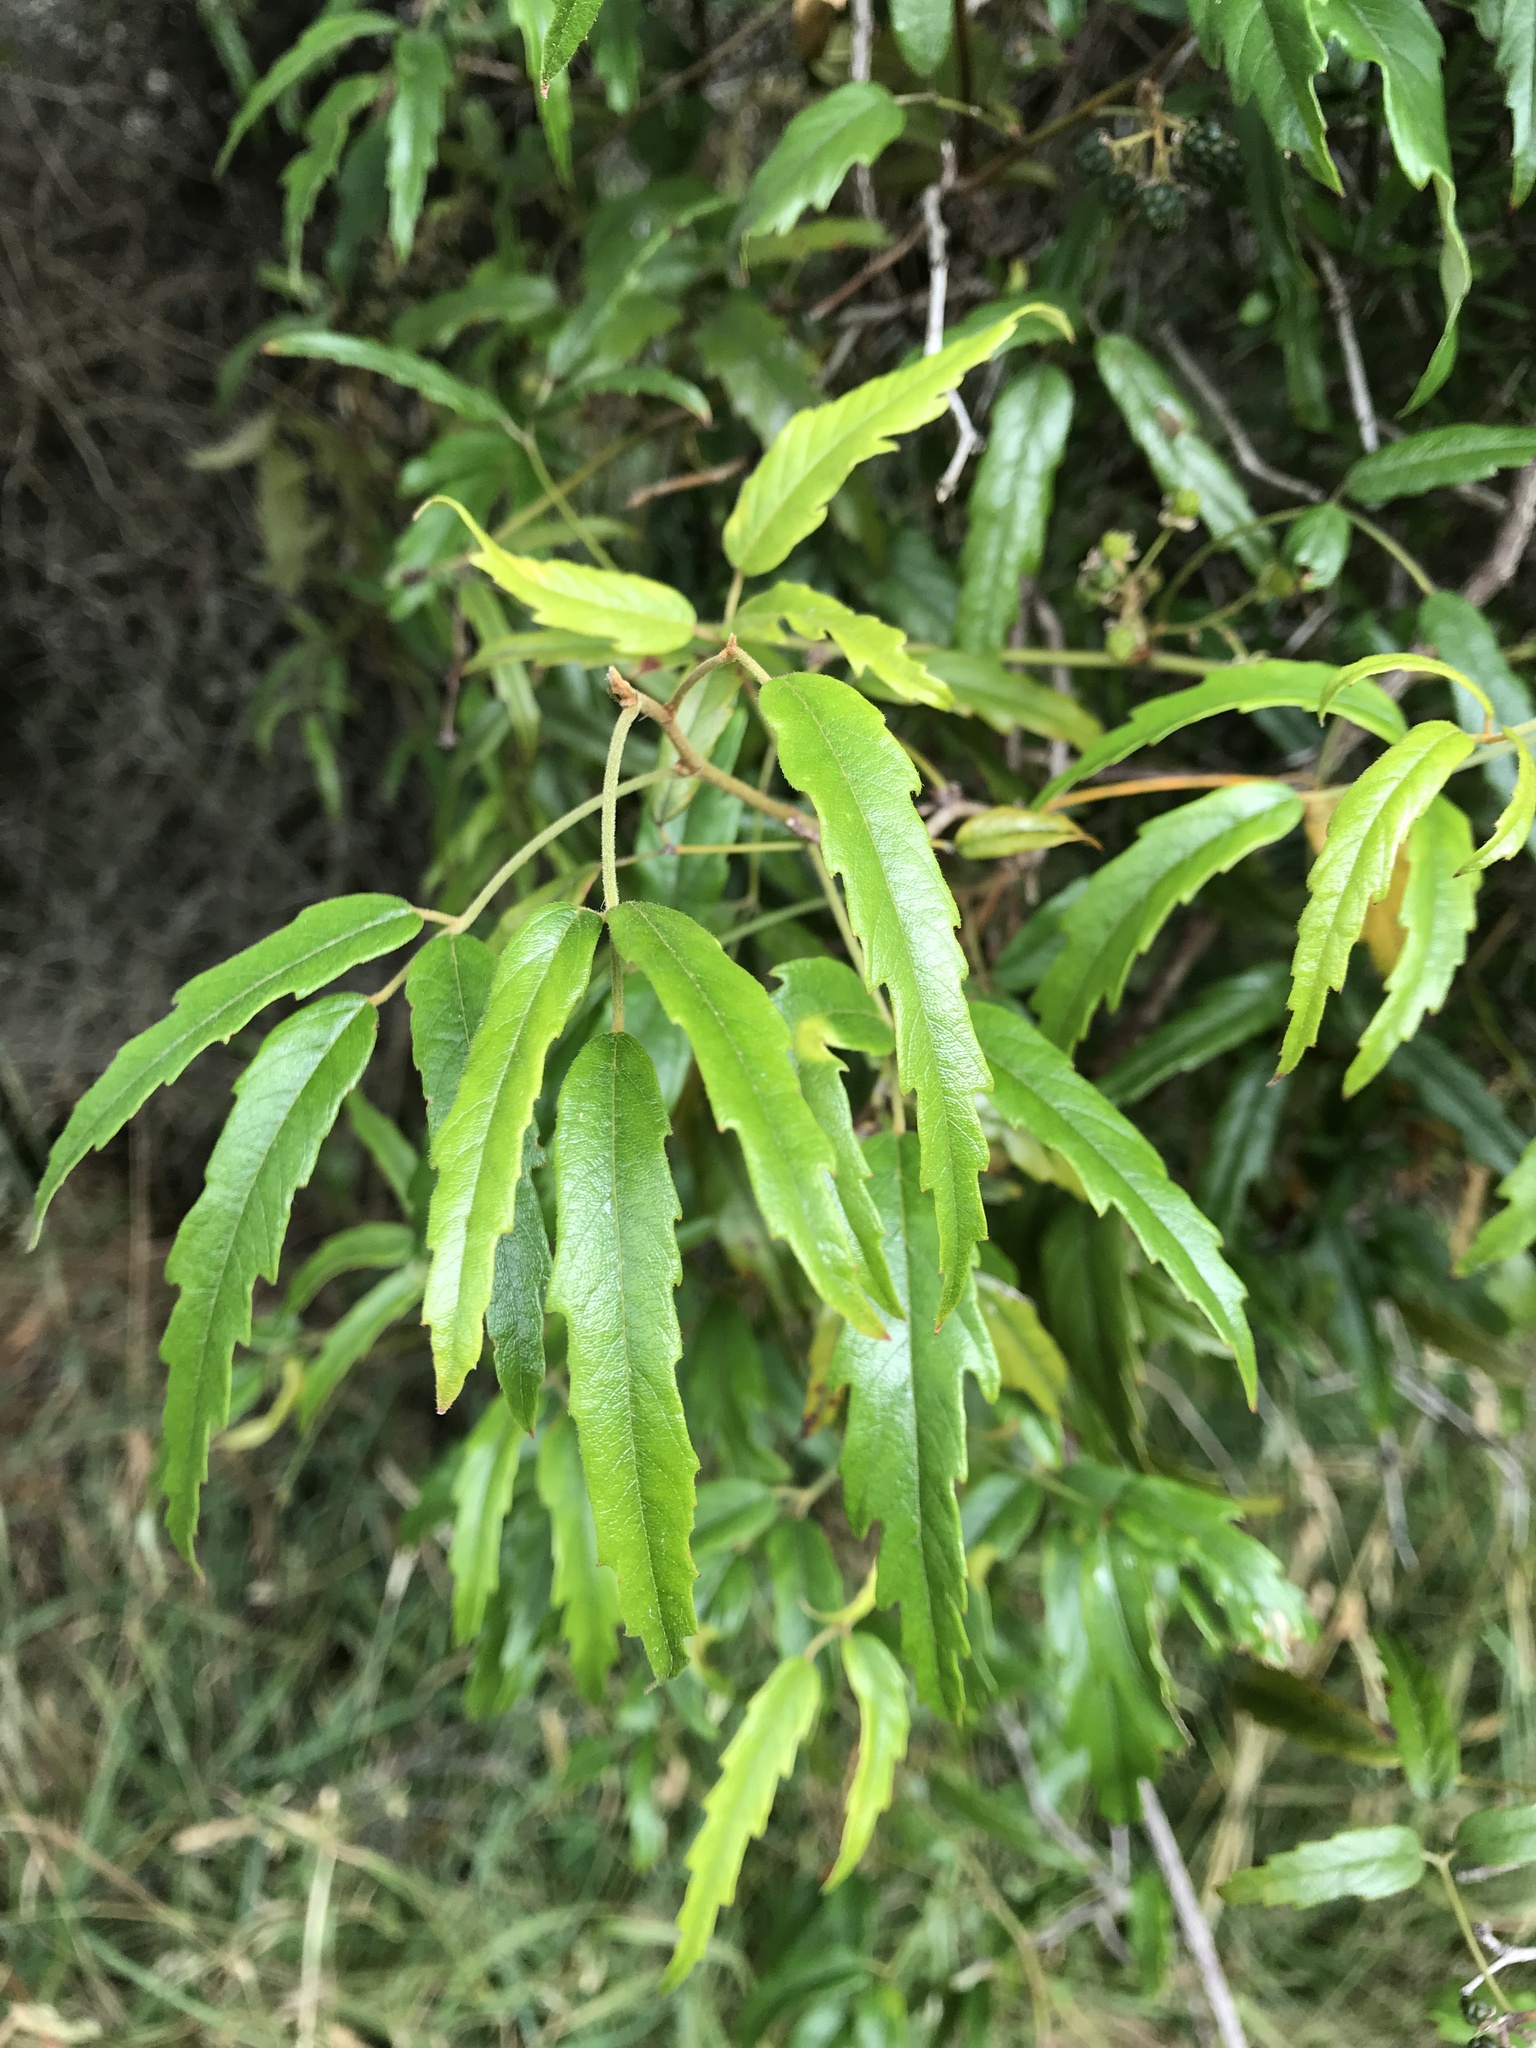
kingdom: Plantae
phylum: Tracheophyta
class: Magnoliopsida
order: Rosales
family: Rosaceae
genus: Rubus
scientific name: Rubus schmidelioides
